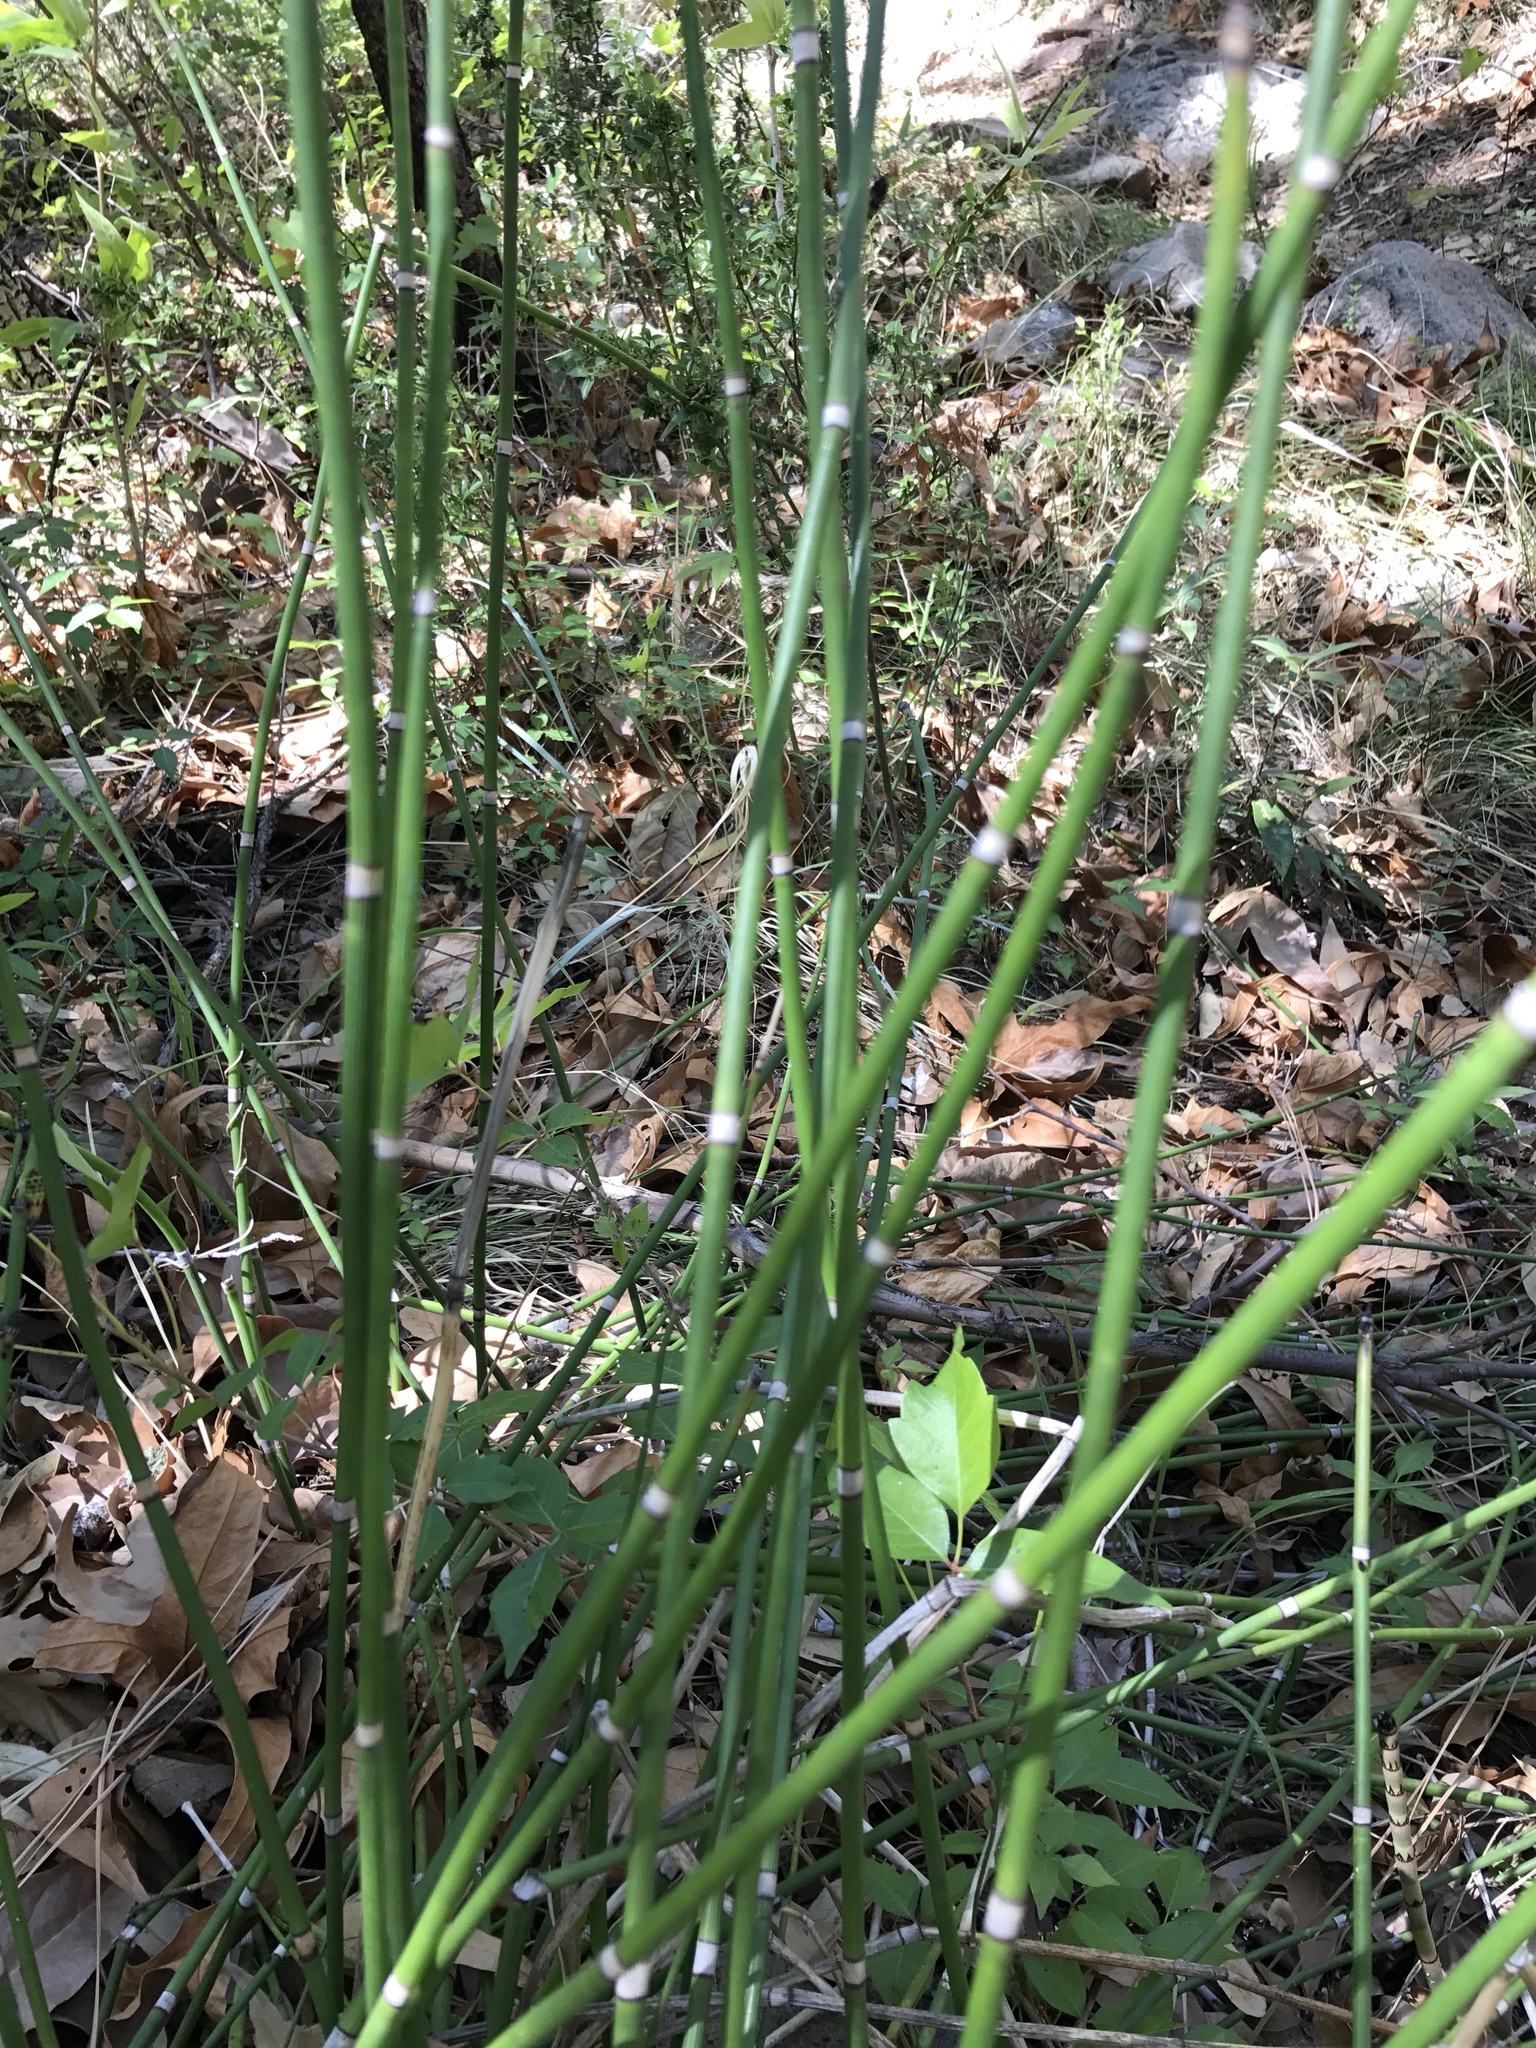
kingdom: Plantae
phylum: Tracheophyta
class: Polypodiopsida
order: Equisetales
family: Equisetaceae
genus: Equisetum
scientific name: Equisetum hyemale
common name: Rough horsetail
